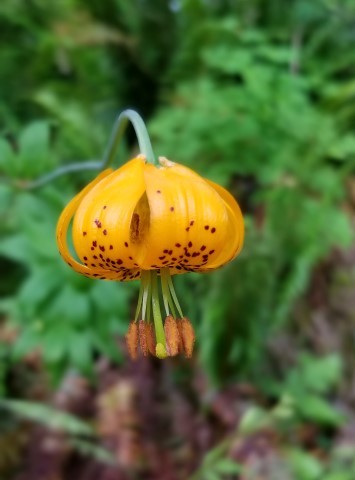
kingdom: Plantae
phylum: Tracheophyta
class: Liliopsida
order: Liliales
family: Liliaceae
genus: Lilium
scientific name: Lilium columbianum
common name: Columbia lily
